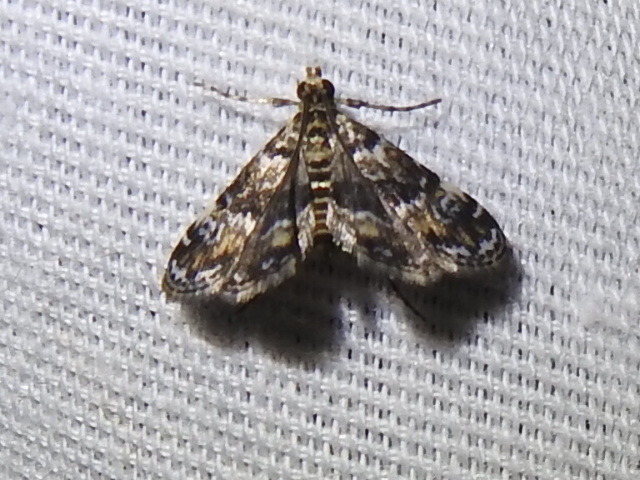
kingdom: Animalia
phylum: Arthropoda
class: Insecta
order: Lepidoptera
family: Crambidae
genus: Elophila
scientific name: Elophila obliteralis
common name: Waterlily leafcutter moth
